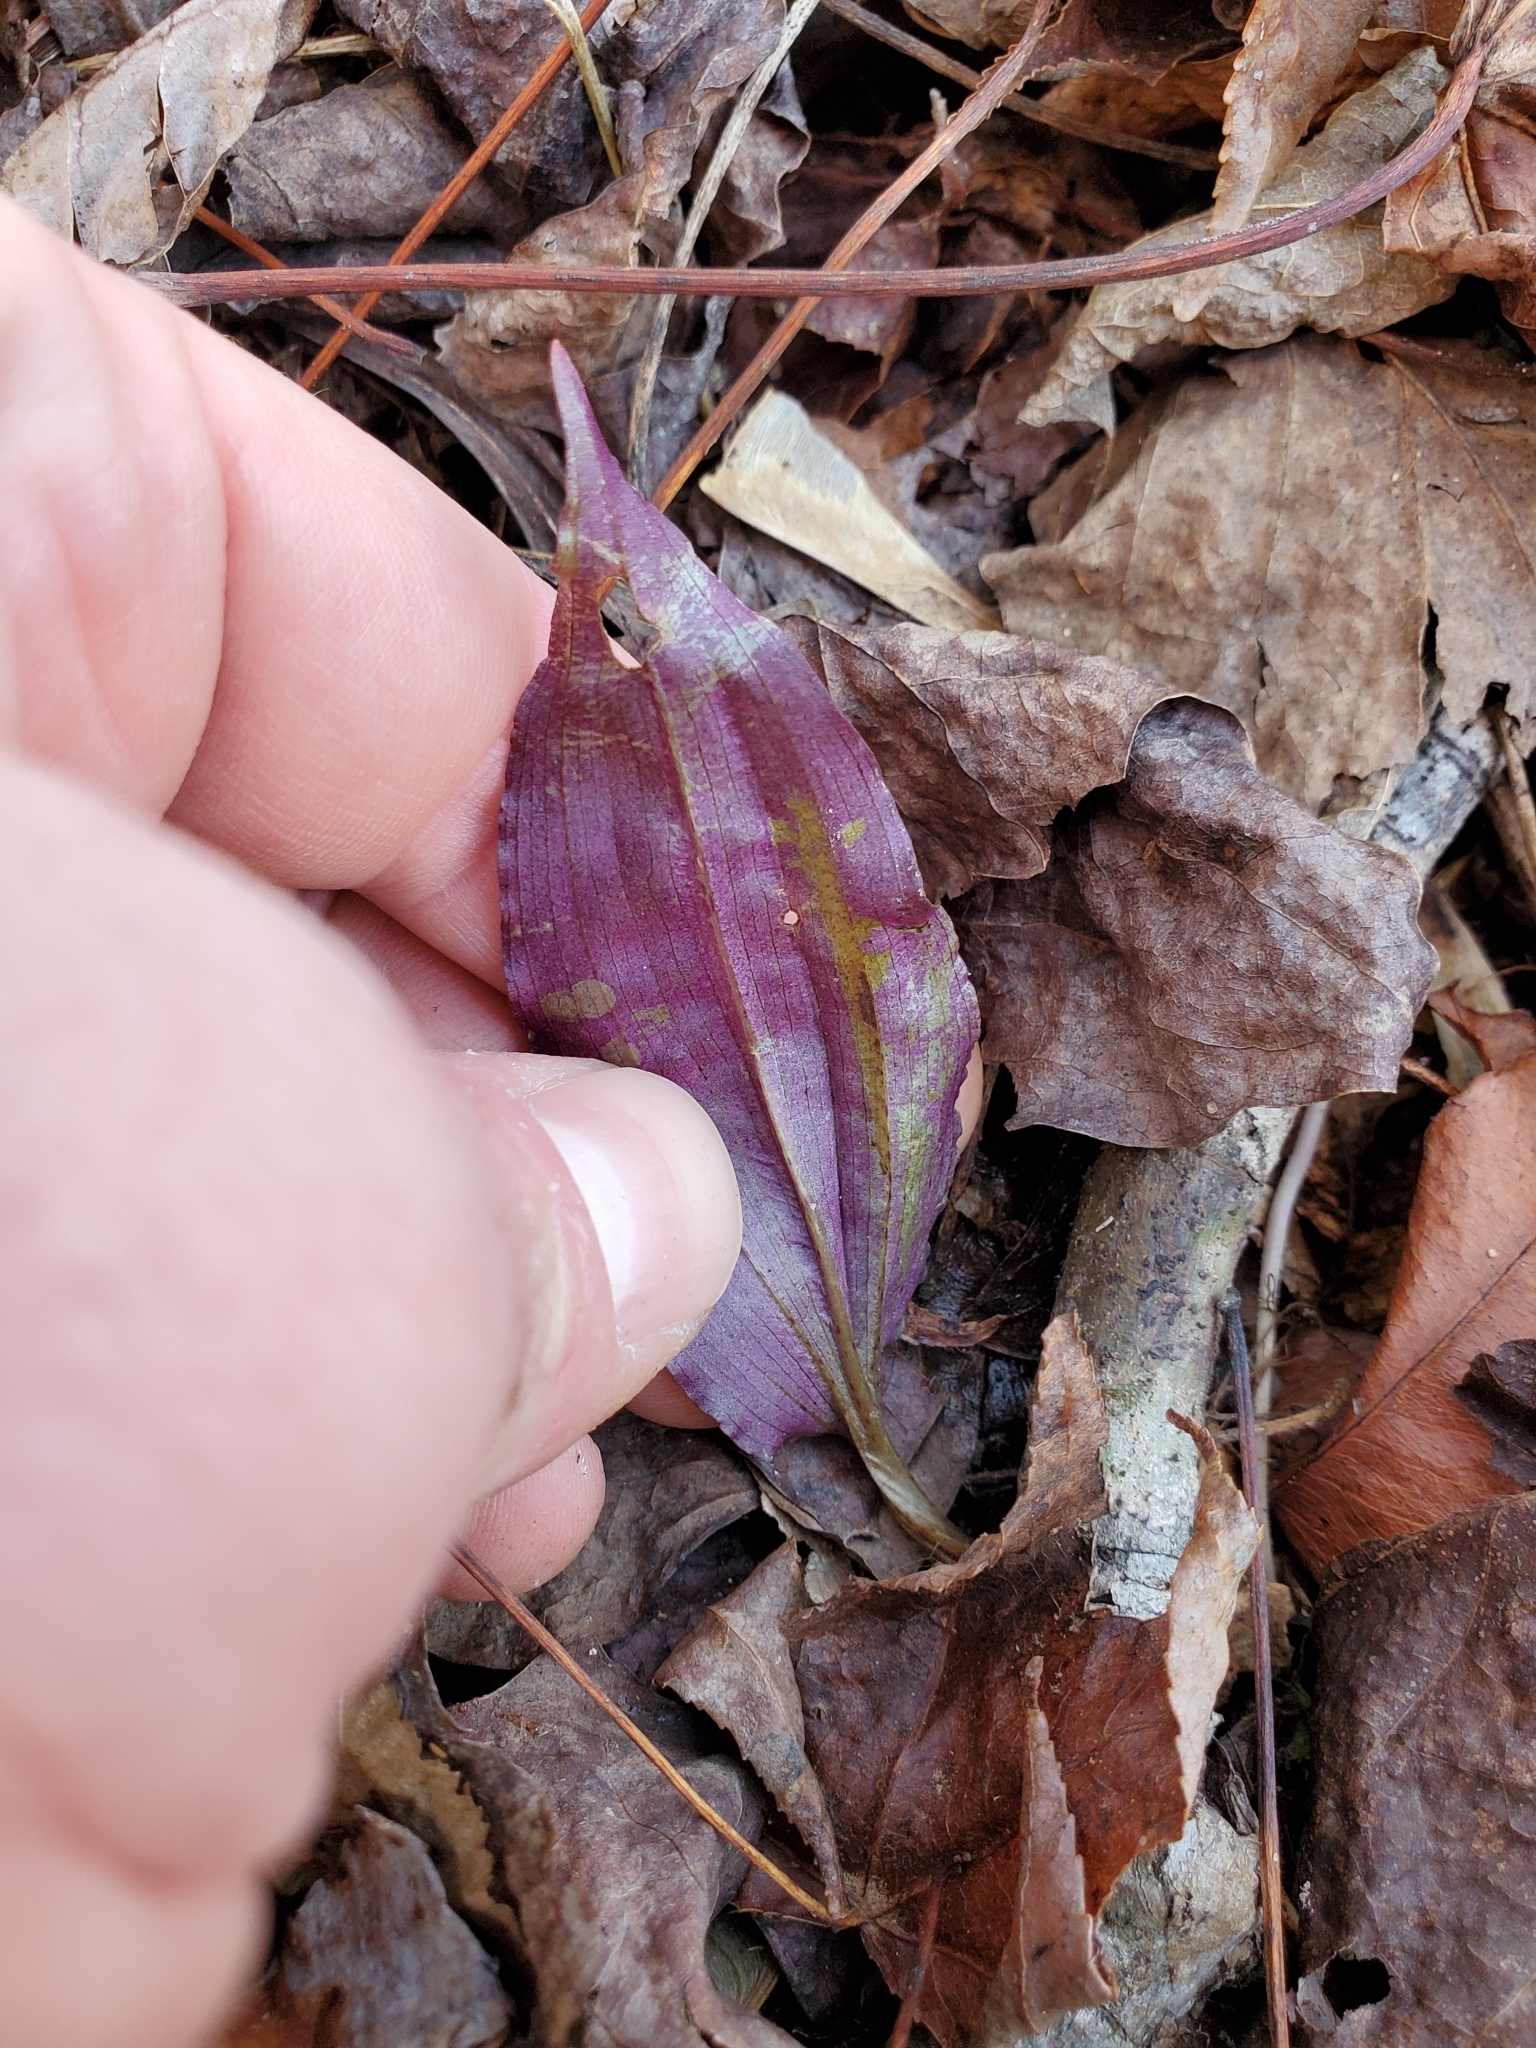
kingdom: Plantae
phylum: Tracheophyta
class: Liliopsida
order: Asparagales
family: Orchidaceae
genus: Tipularia
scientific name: Tipularia discolor
